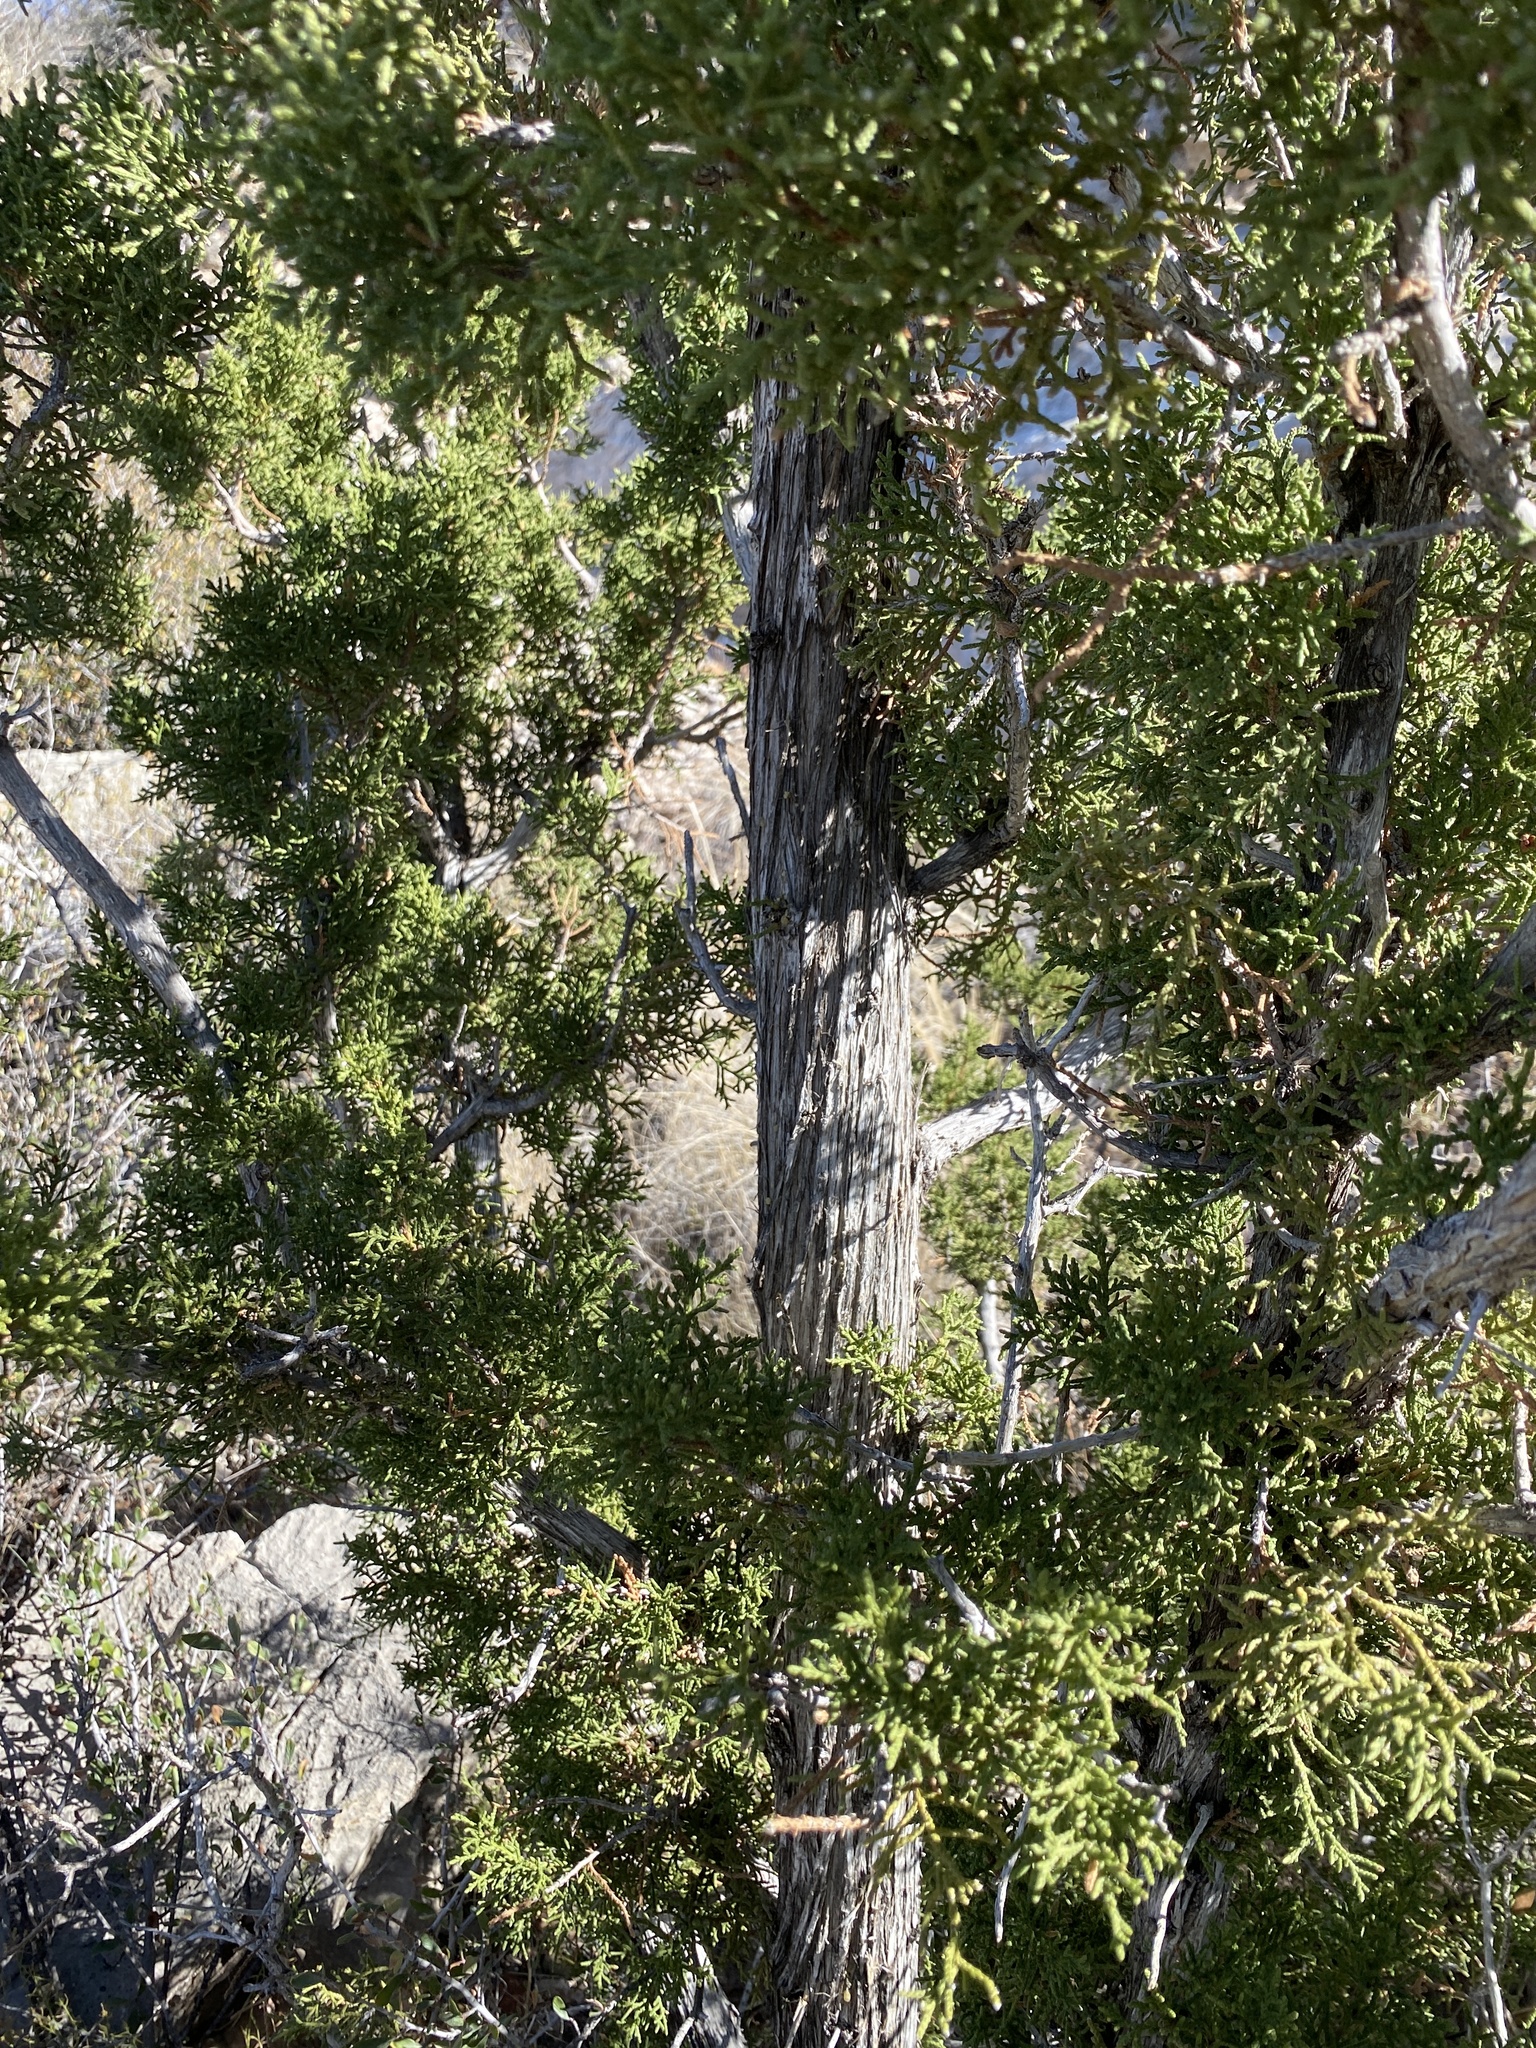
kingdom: Plantae
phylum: Tracheophyta
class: Pinopsida
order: Pinales
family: Cupressaceae
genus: Juniperus
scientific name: Juniperus monosperma
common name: One-seed juniper
